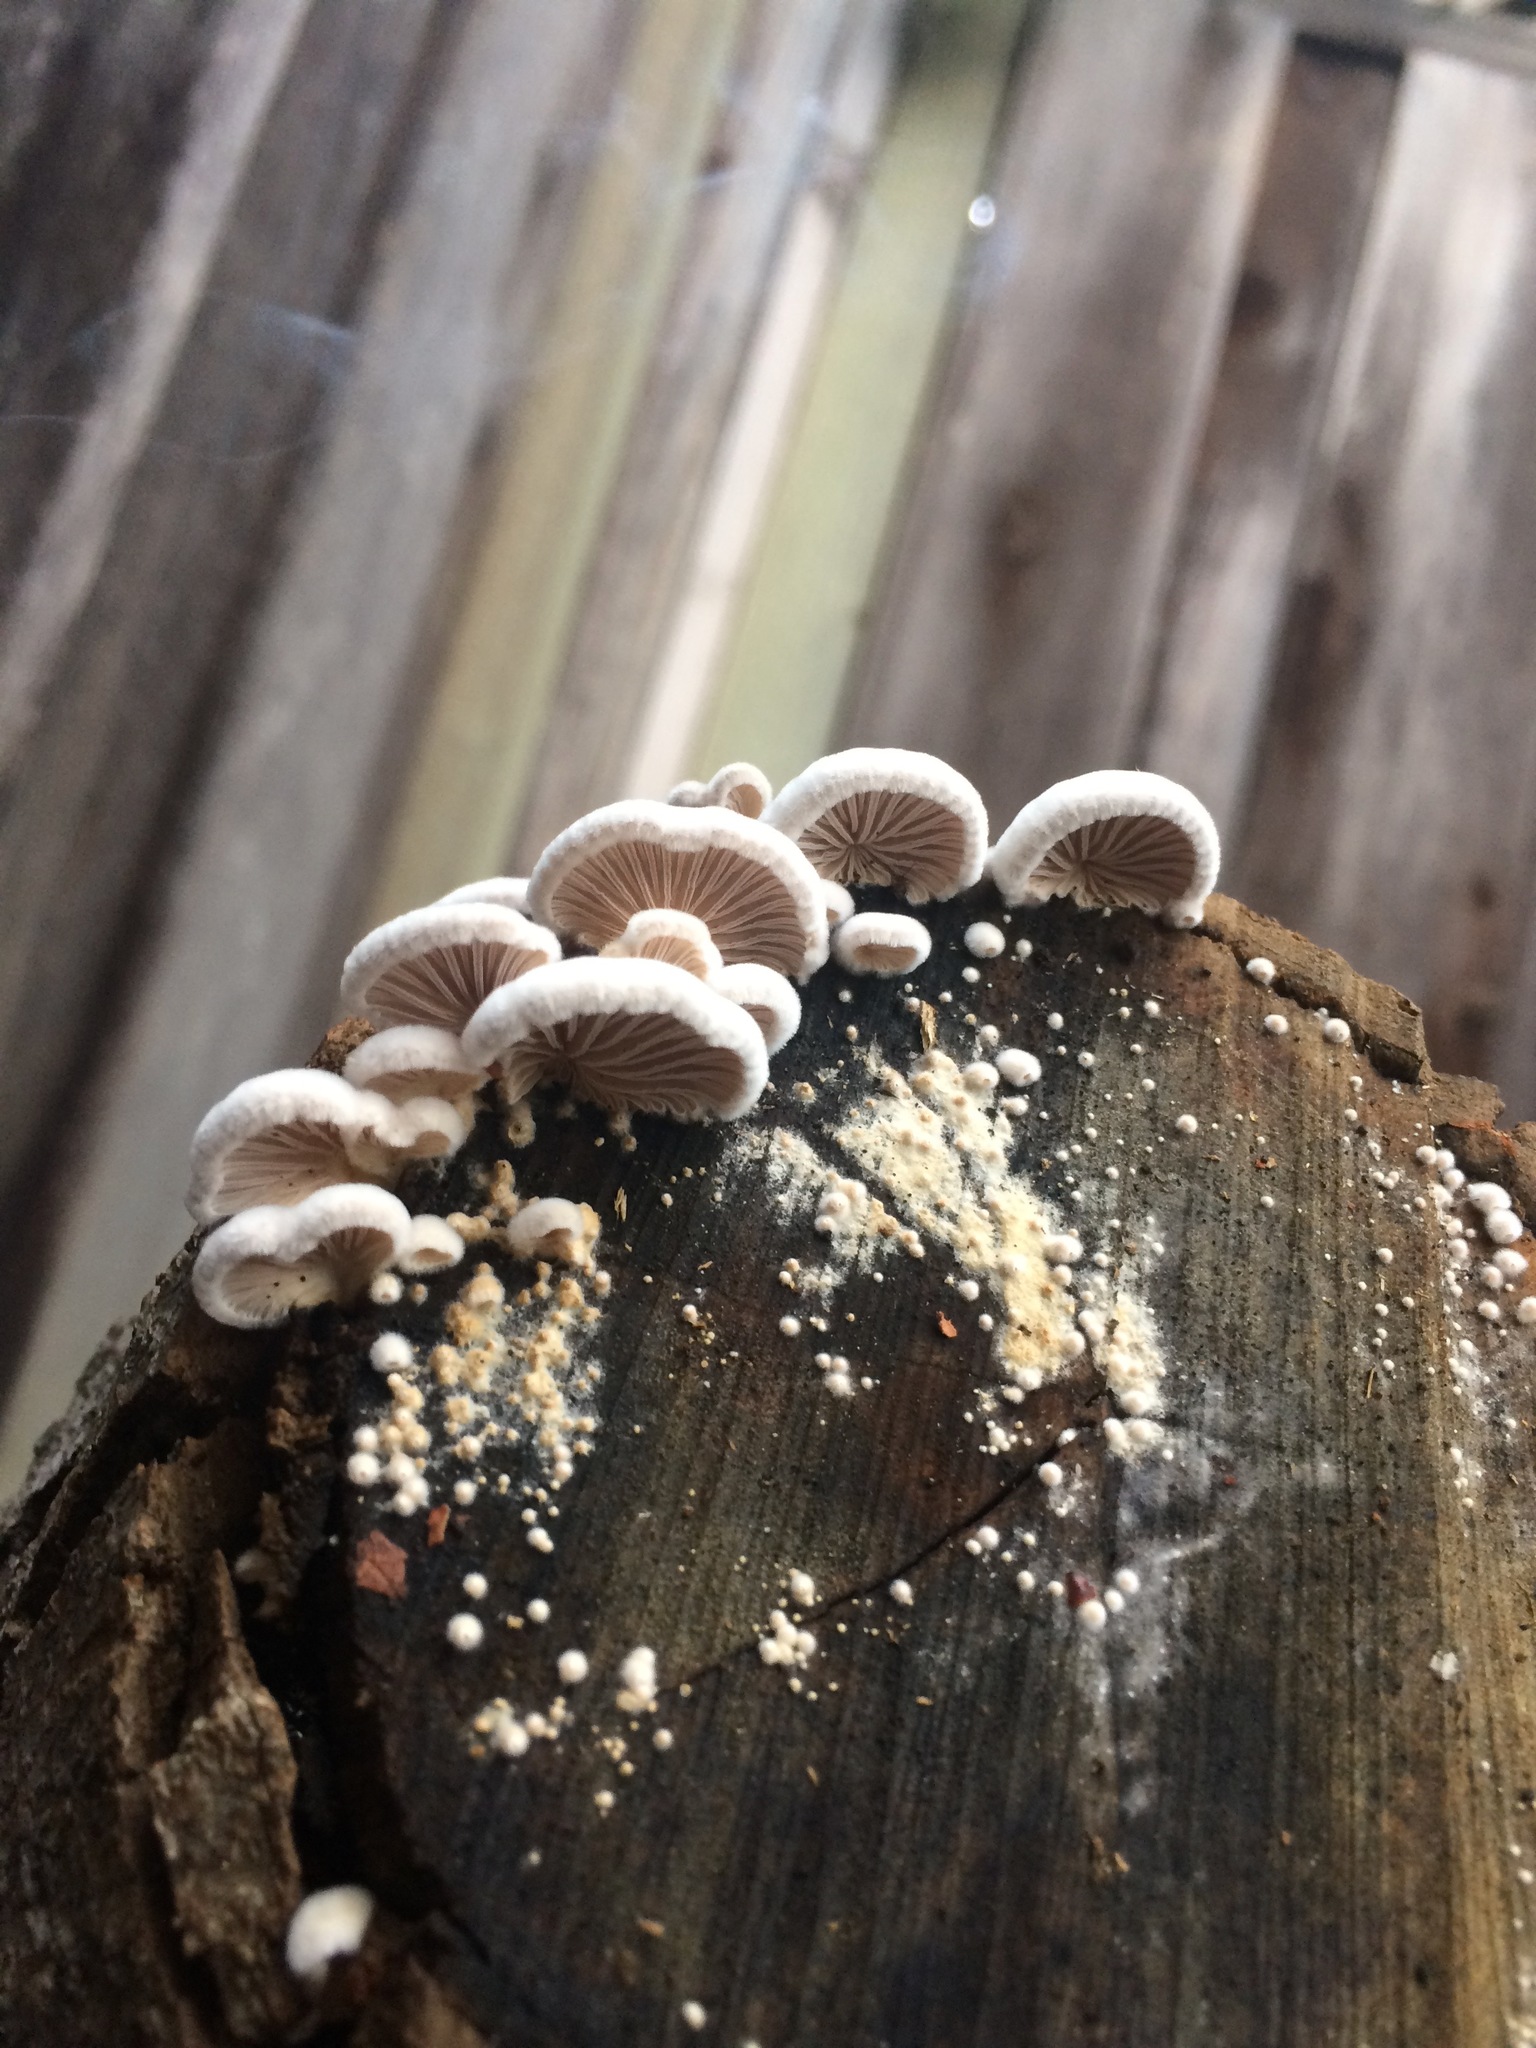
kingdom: Fungi
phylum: Basidiomycota
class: Agaricomycetes
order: Agaricales
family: Schizophyllaceae
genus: Schizophyllum
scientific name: Schizophyllum commune
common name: Common porecrust
